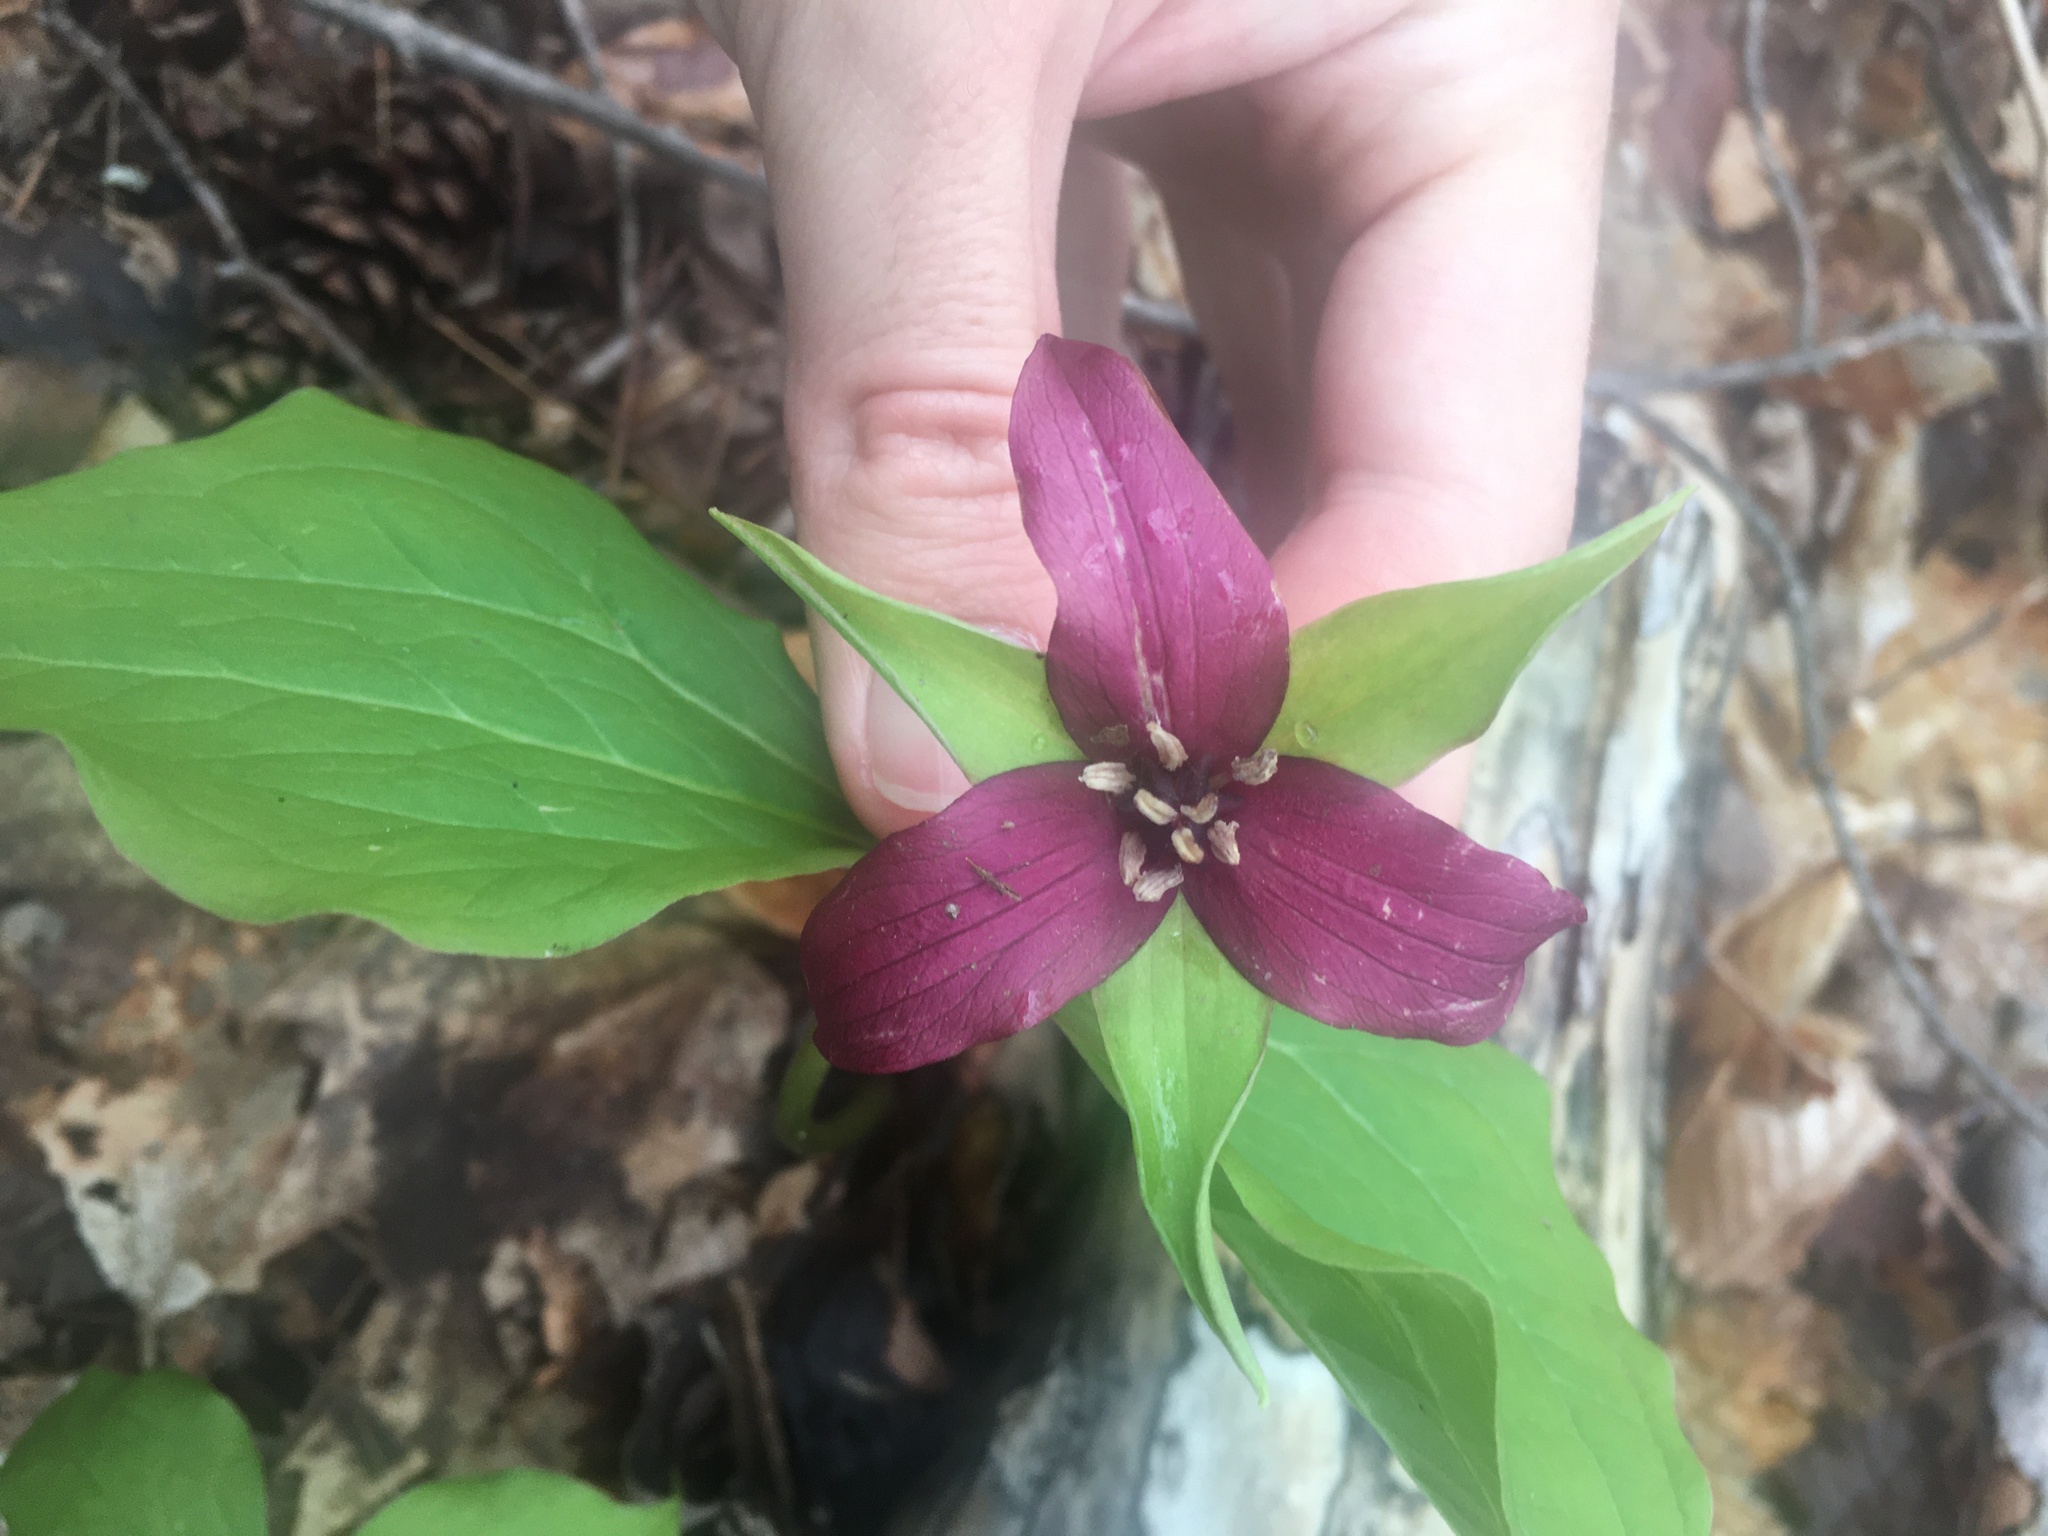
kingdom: Plantae
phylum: Tracheophyta
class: Liliopsida
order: Liliales
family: Melanthiaceae
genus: Trillium
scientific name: Trillium erectum
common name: Purple trillium
